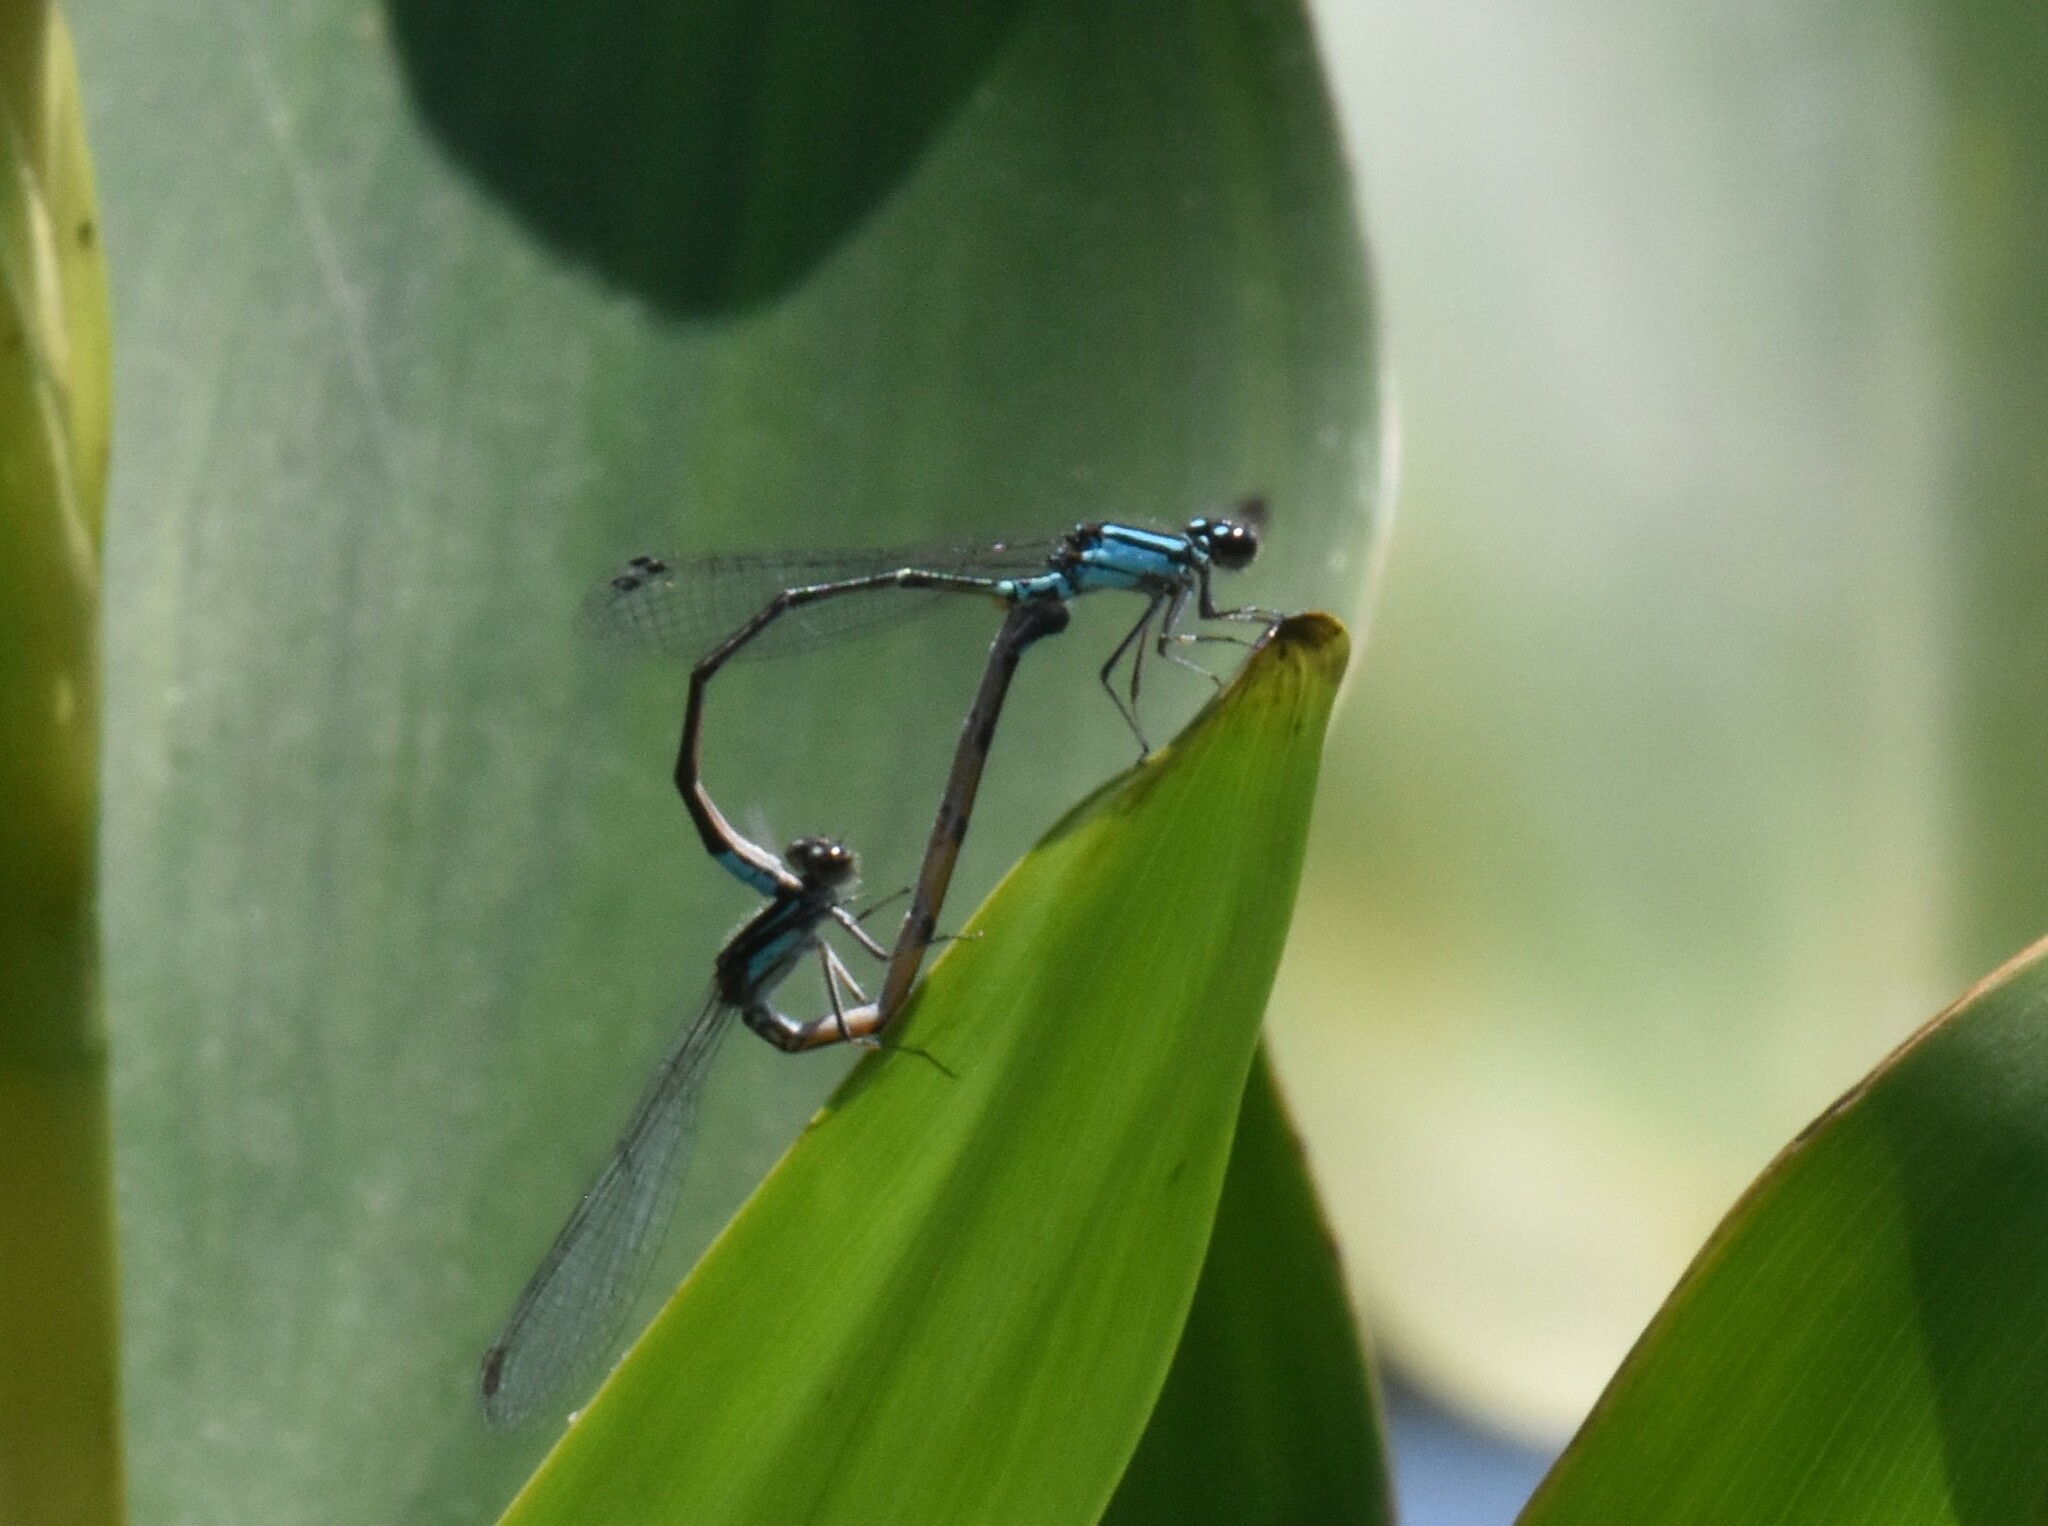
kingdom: Animalia
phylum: Arthropoda
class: Insecta
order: Odonata
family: Coenagrionidae
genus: Enallagma
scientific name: Enallagma geminatum
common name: Skimming bluet
